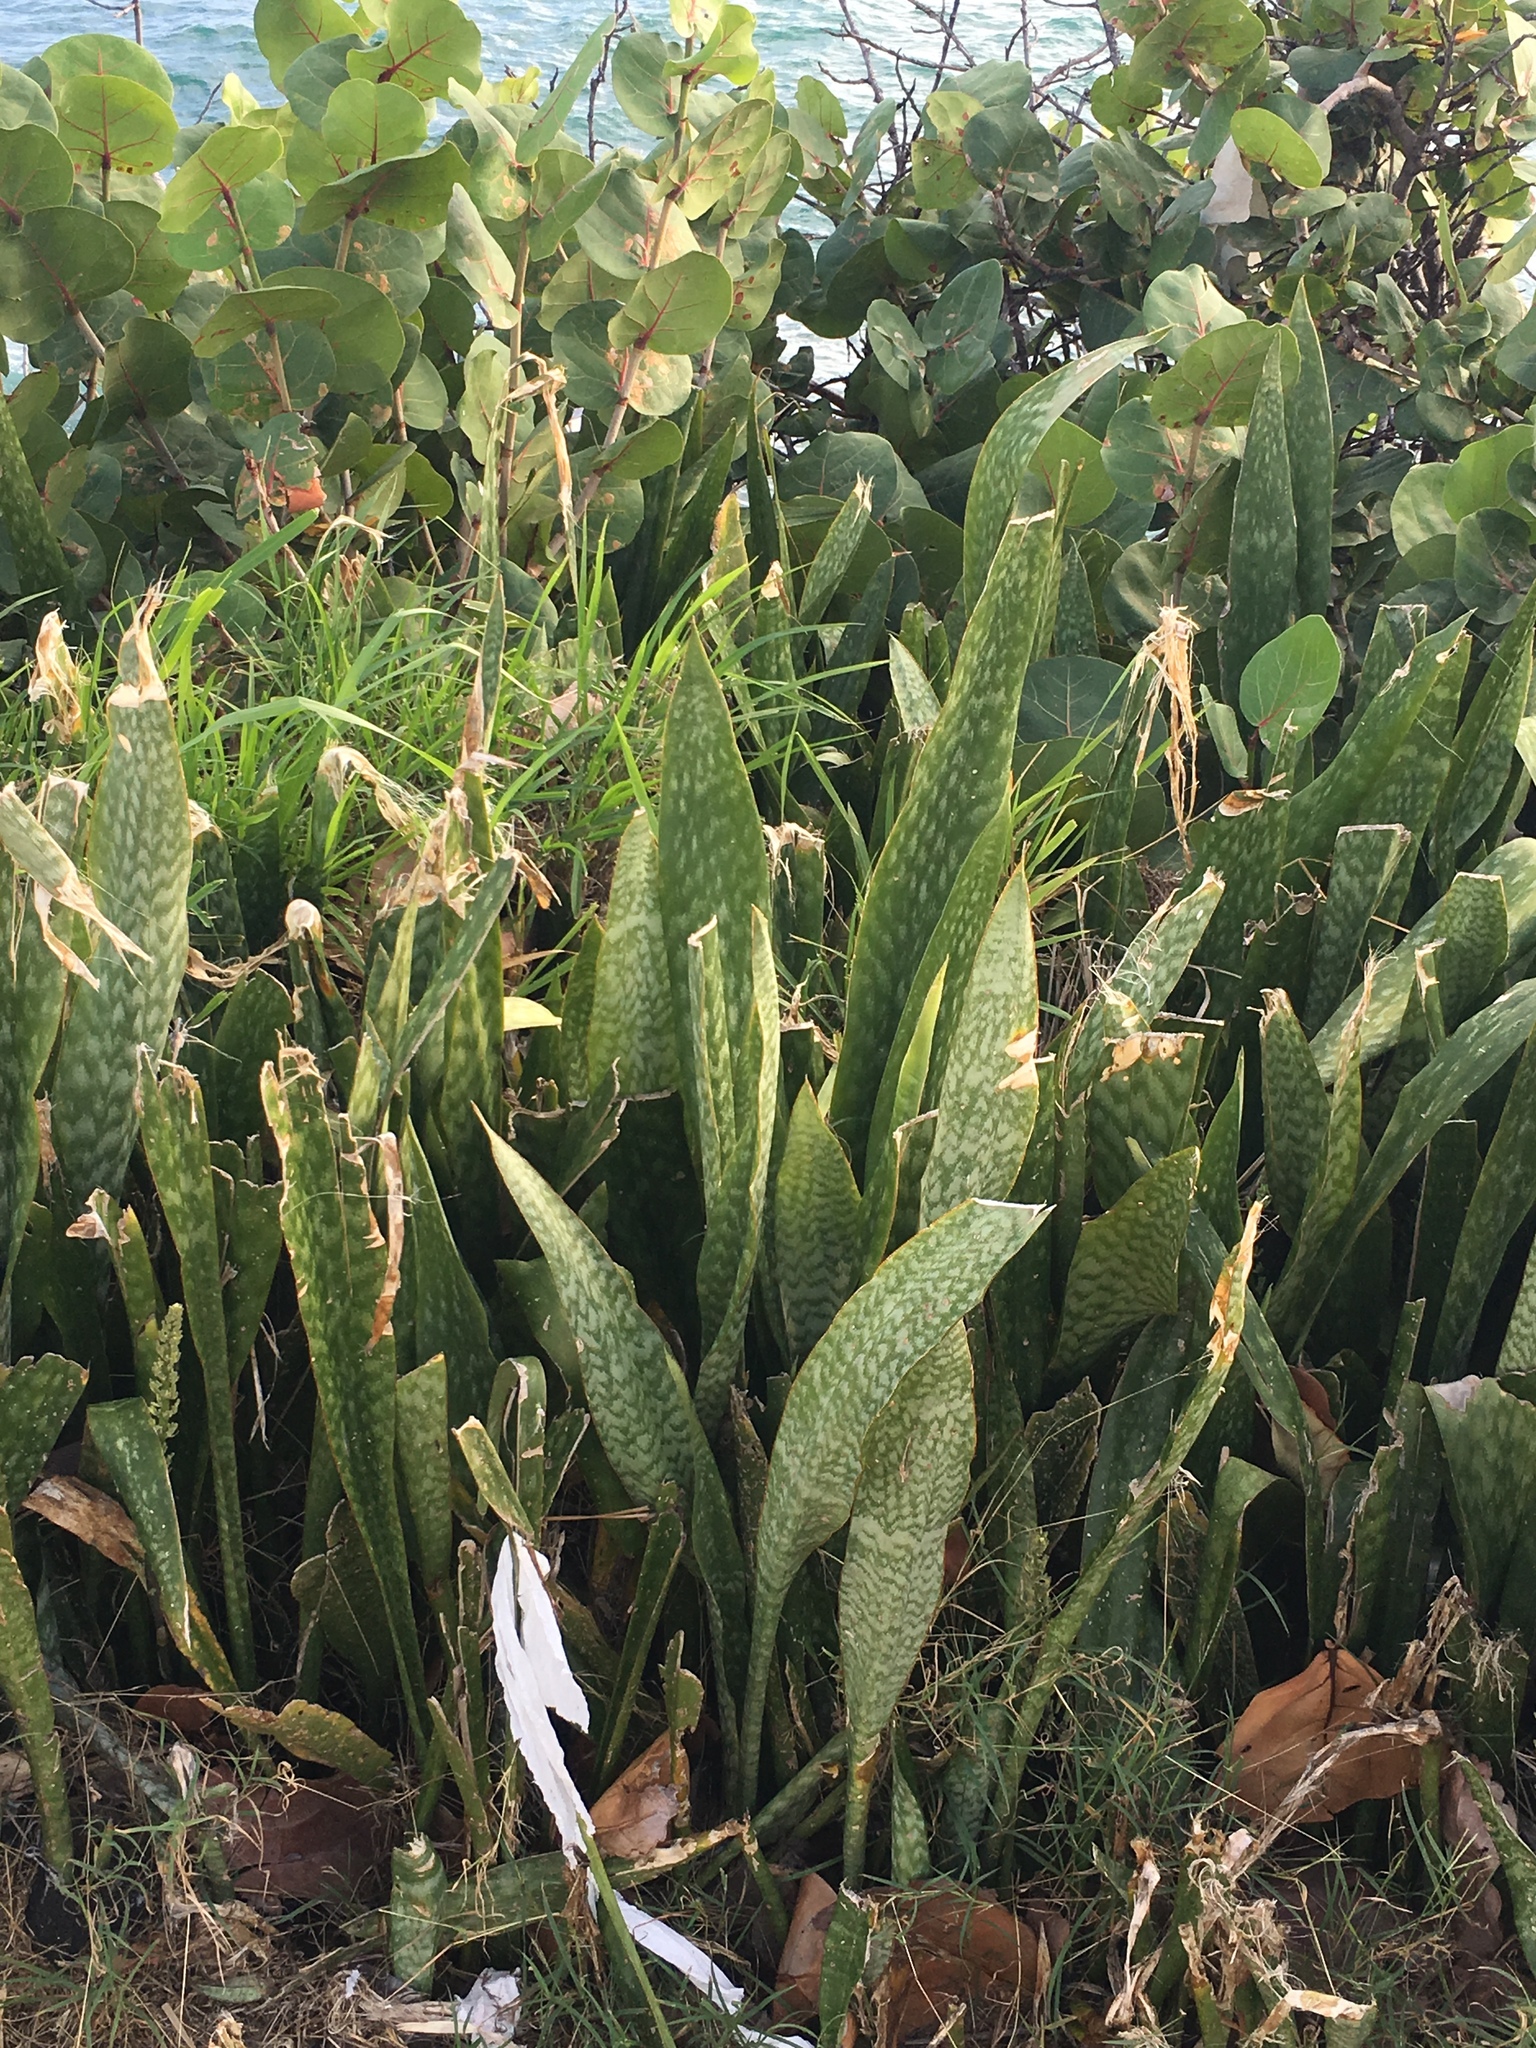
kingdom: Plantae
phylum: Tracheophyta
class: Liliopsida
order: Asparagales
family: Asparagaceae
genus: Dracaena
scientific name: Dracaena hyacinthoides
